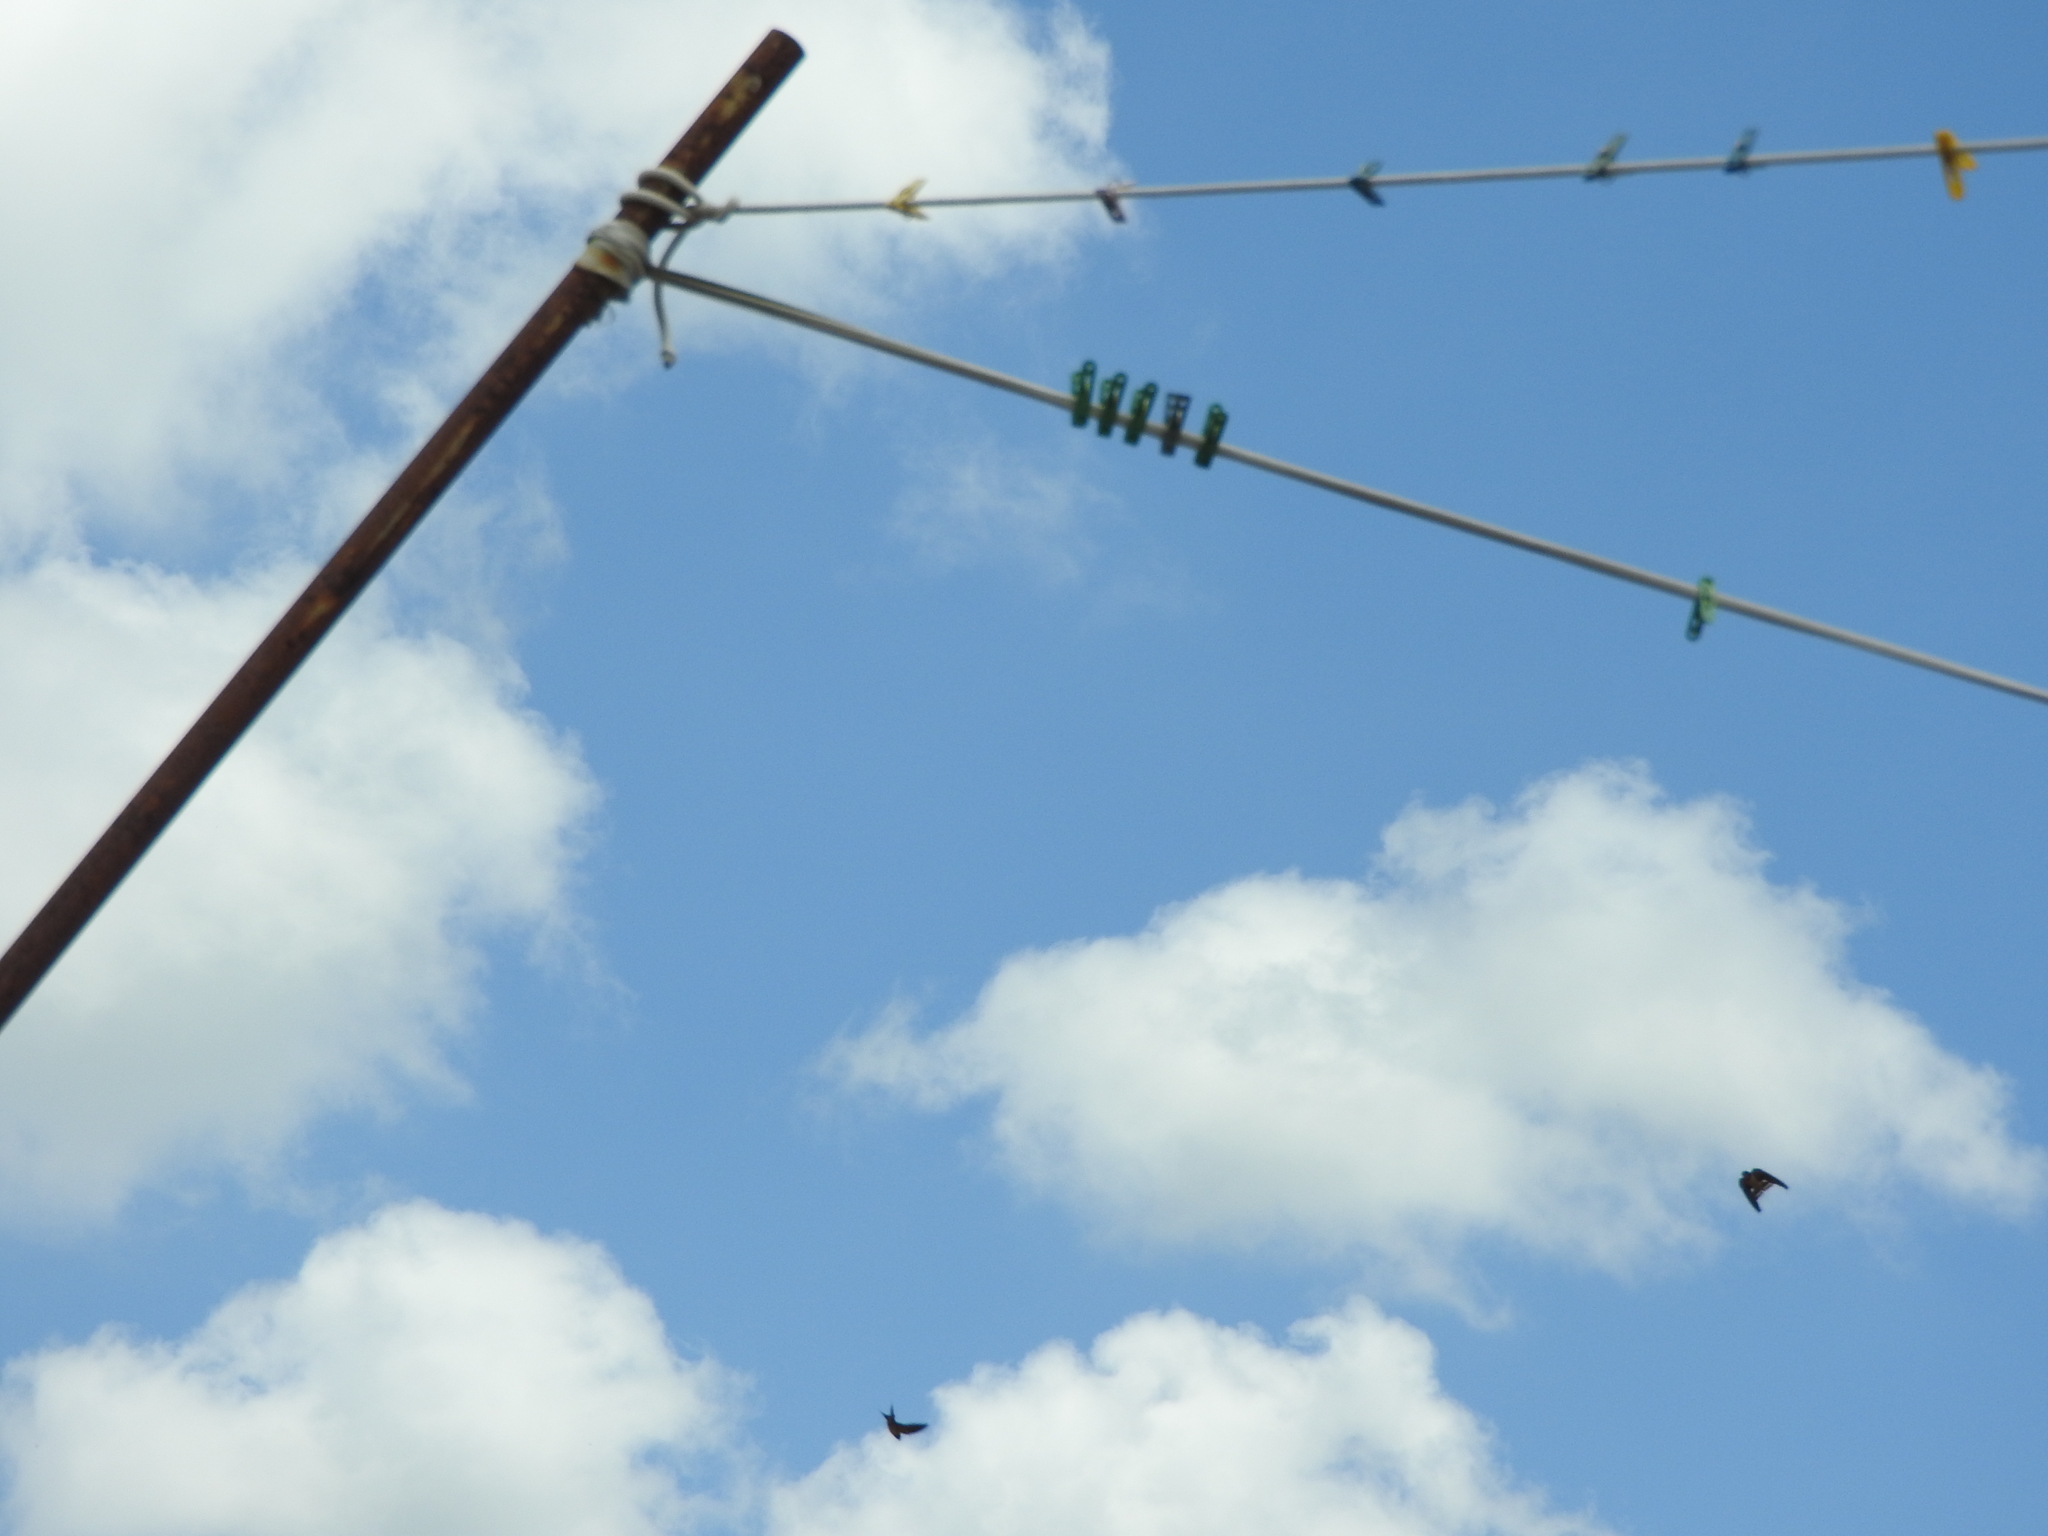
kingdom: Animalia
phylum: Chordata
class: Aves
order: Passeriformes
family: Hirundinidae
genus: Hirundo
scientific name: Hirundo rustica
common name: Barn swallow
